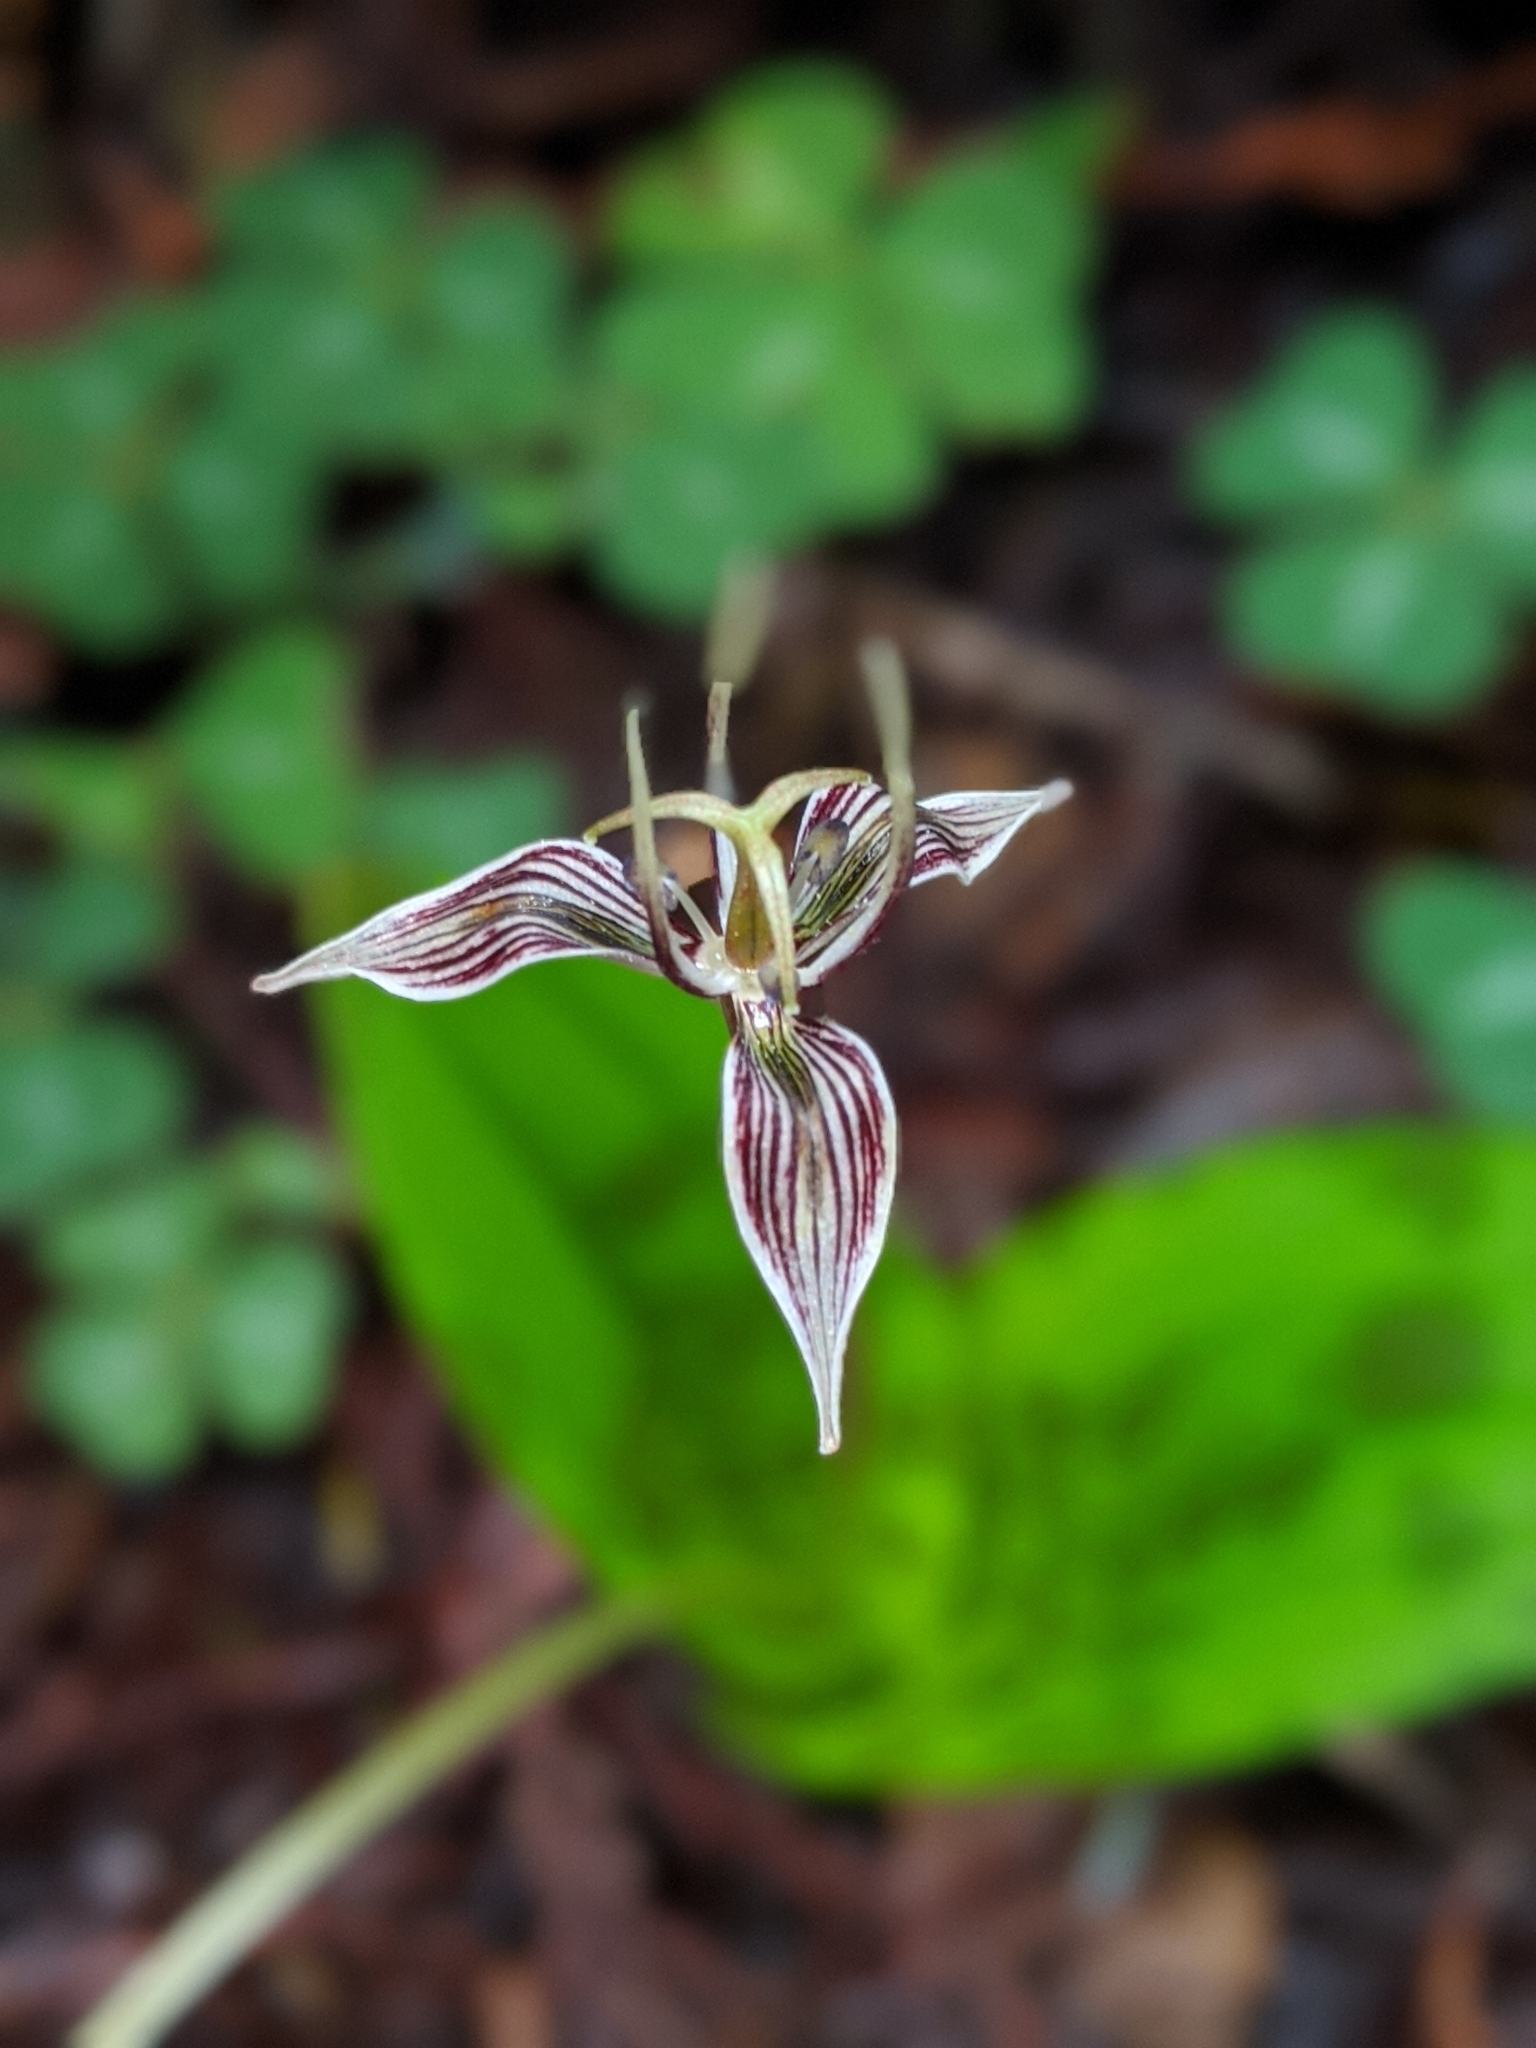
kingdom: Plantae
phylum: Tracheophyta
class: Liliopsida
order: Liliales
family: Liliaceae
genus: Scoliopus
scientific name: Scoliopus bigelovii
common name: Foetid adder's-tongue
